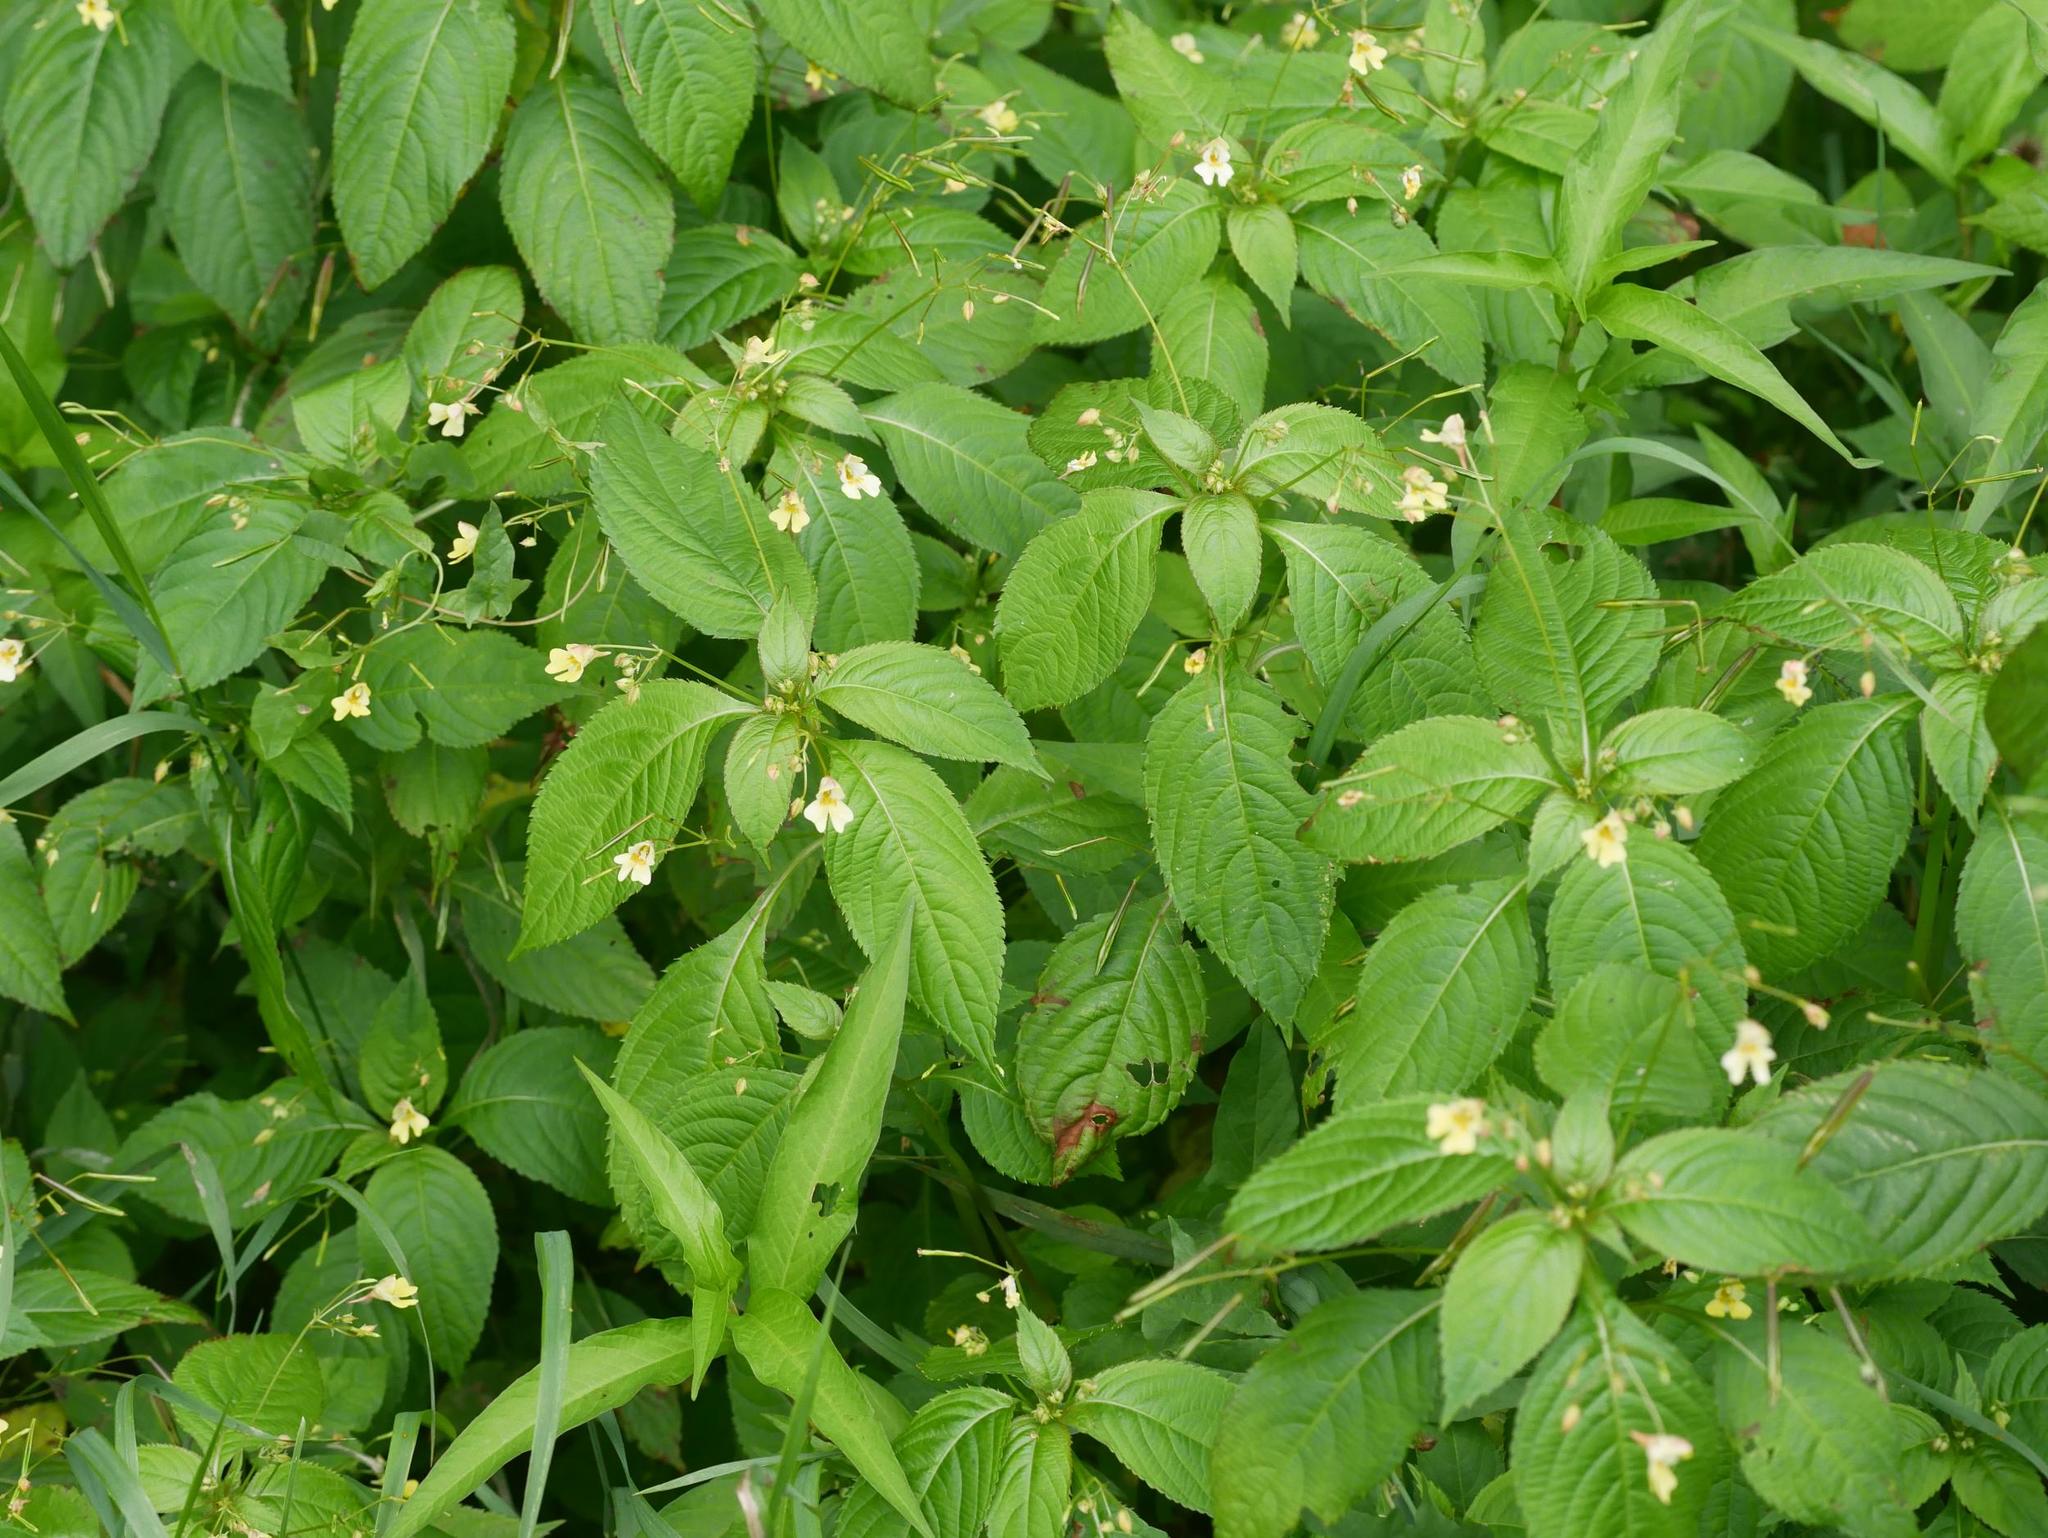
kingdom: Plantae
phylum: Tracheophyta
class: Magnoliopsida
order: Ericales
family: Balsaminaceae
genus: Impatiens
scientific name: Impatiens parviflora
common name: Small balsam
